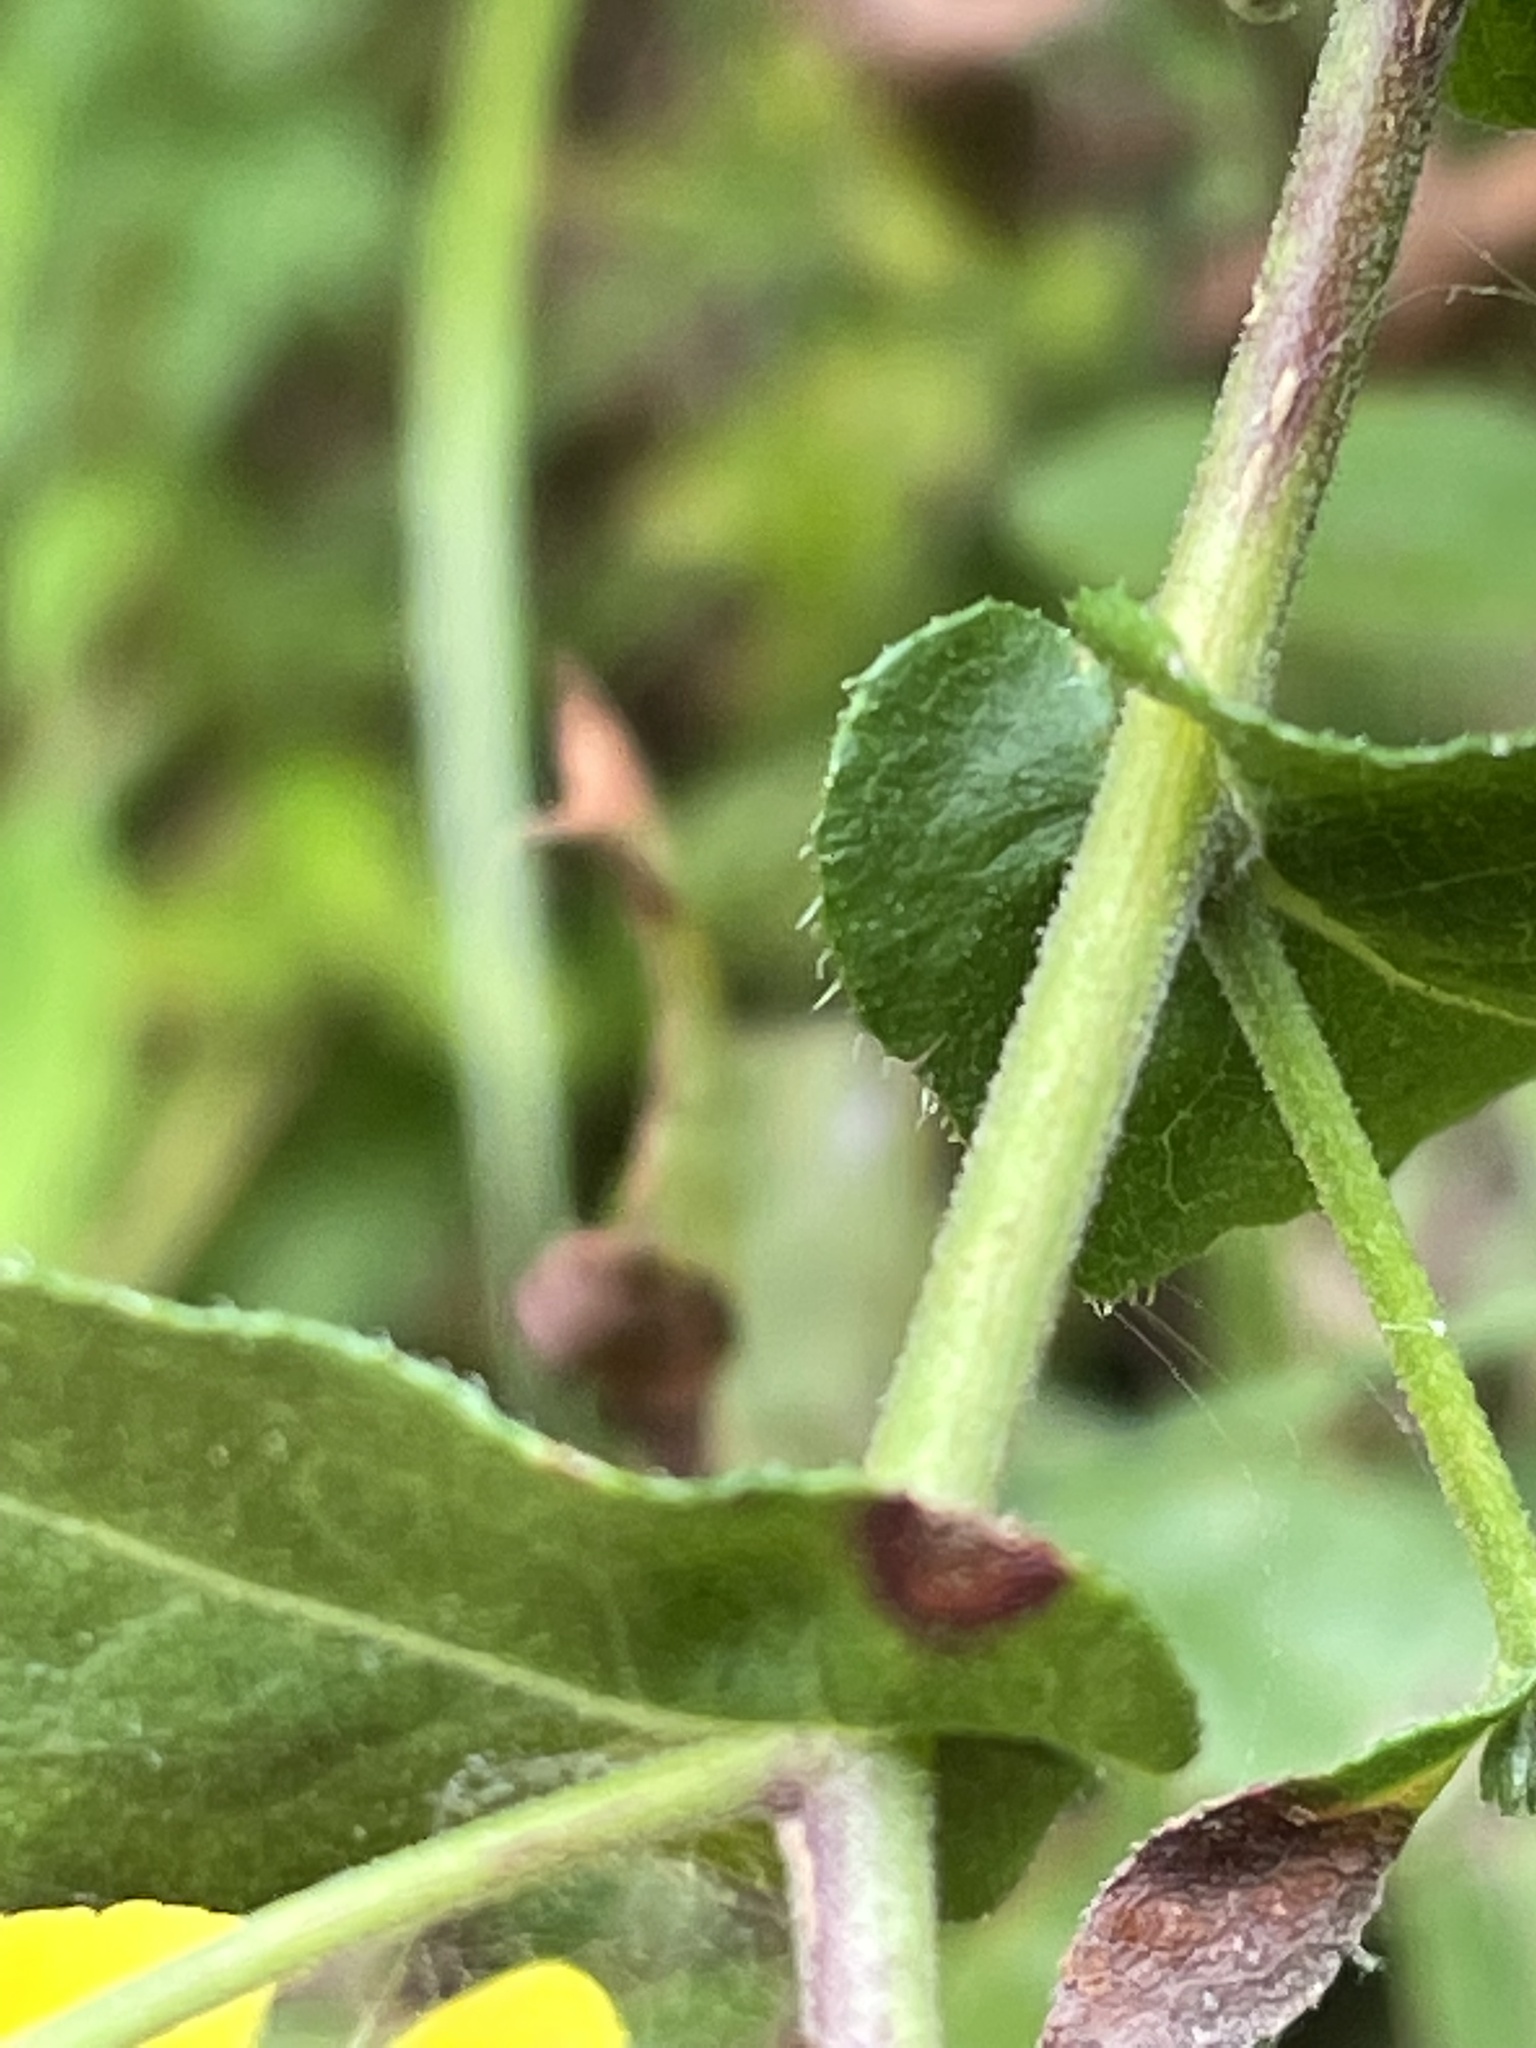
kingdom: Plantae
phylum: Tracheophyta
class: Magnoliopsida
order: Asterales
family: Asteraceae
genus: Symphyotrichum
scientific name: Symphyotrichum patens
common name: Late purple aster
